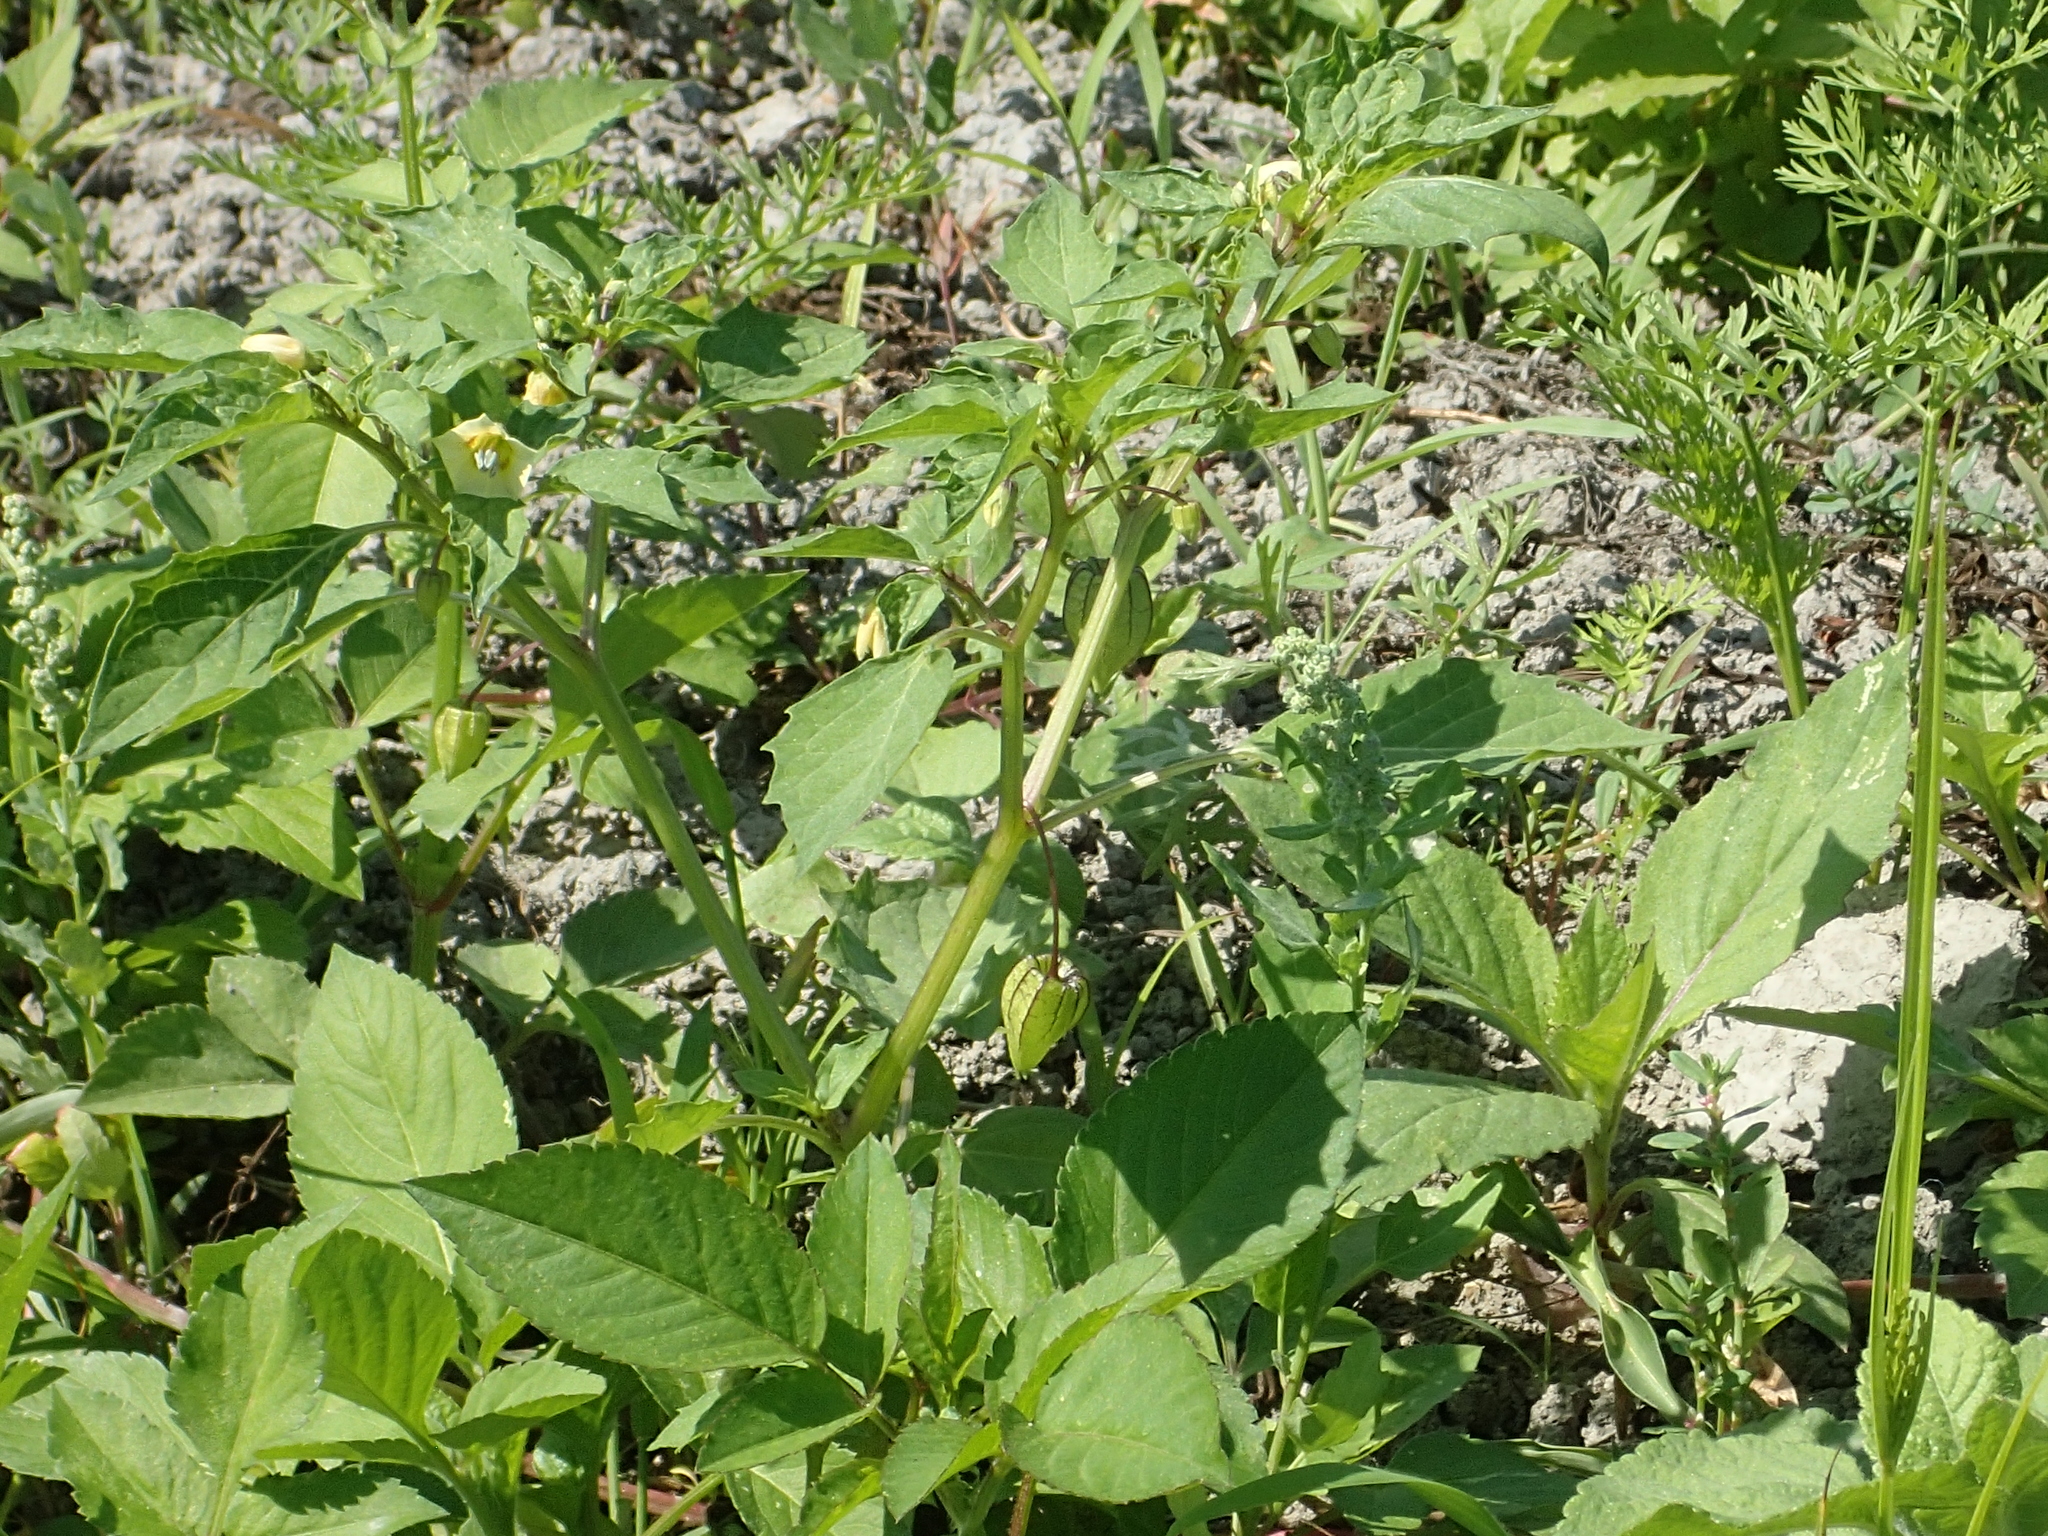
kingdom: Plantae
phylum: Tracheophyta
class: Magnoliopsida
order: Solanales
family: Solanaceae
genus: Physalis
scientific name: Physalis angulata
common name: Angular winter-cherry
